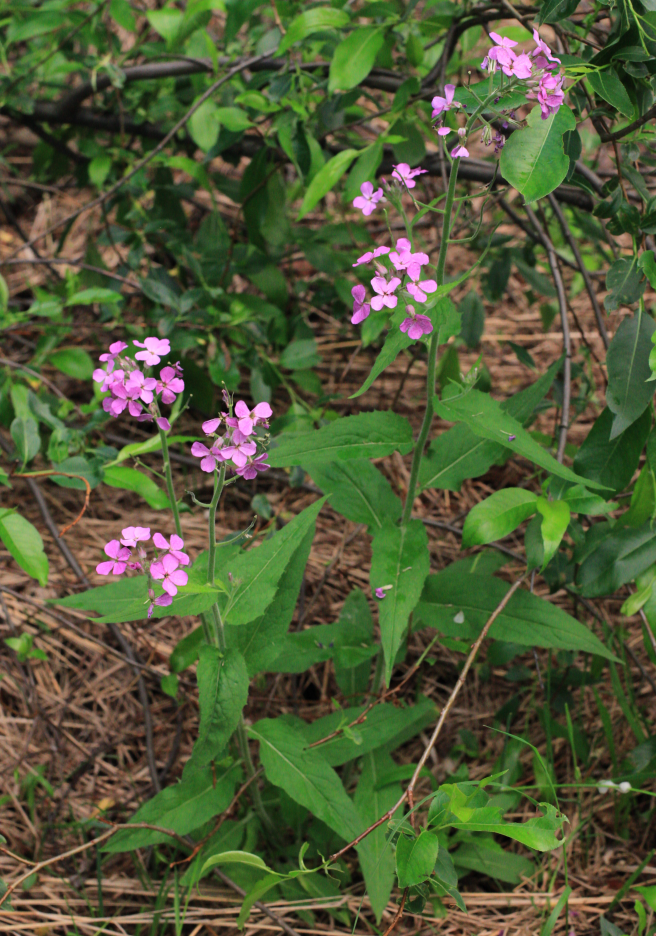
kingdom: Plantae
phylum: Tracheophyta
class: Magnoliopsida
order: Brassicales
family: Brassicaceae
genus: Hesperis
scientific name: Hesperis sibirica
